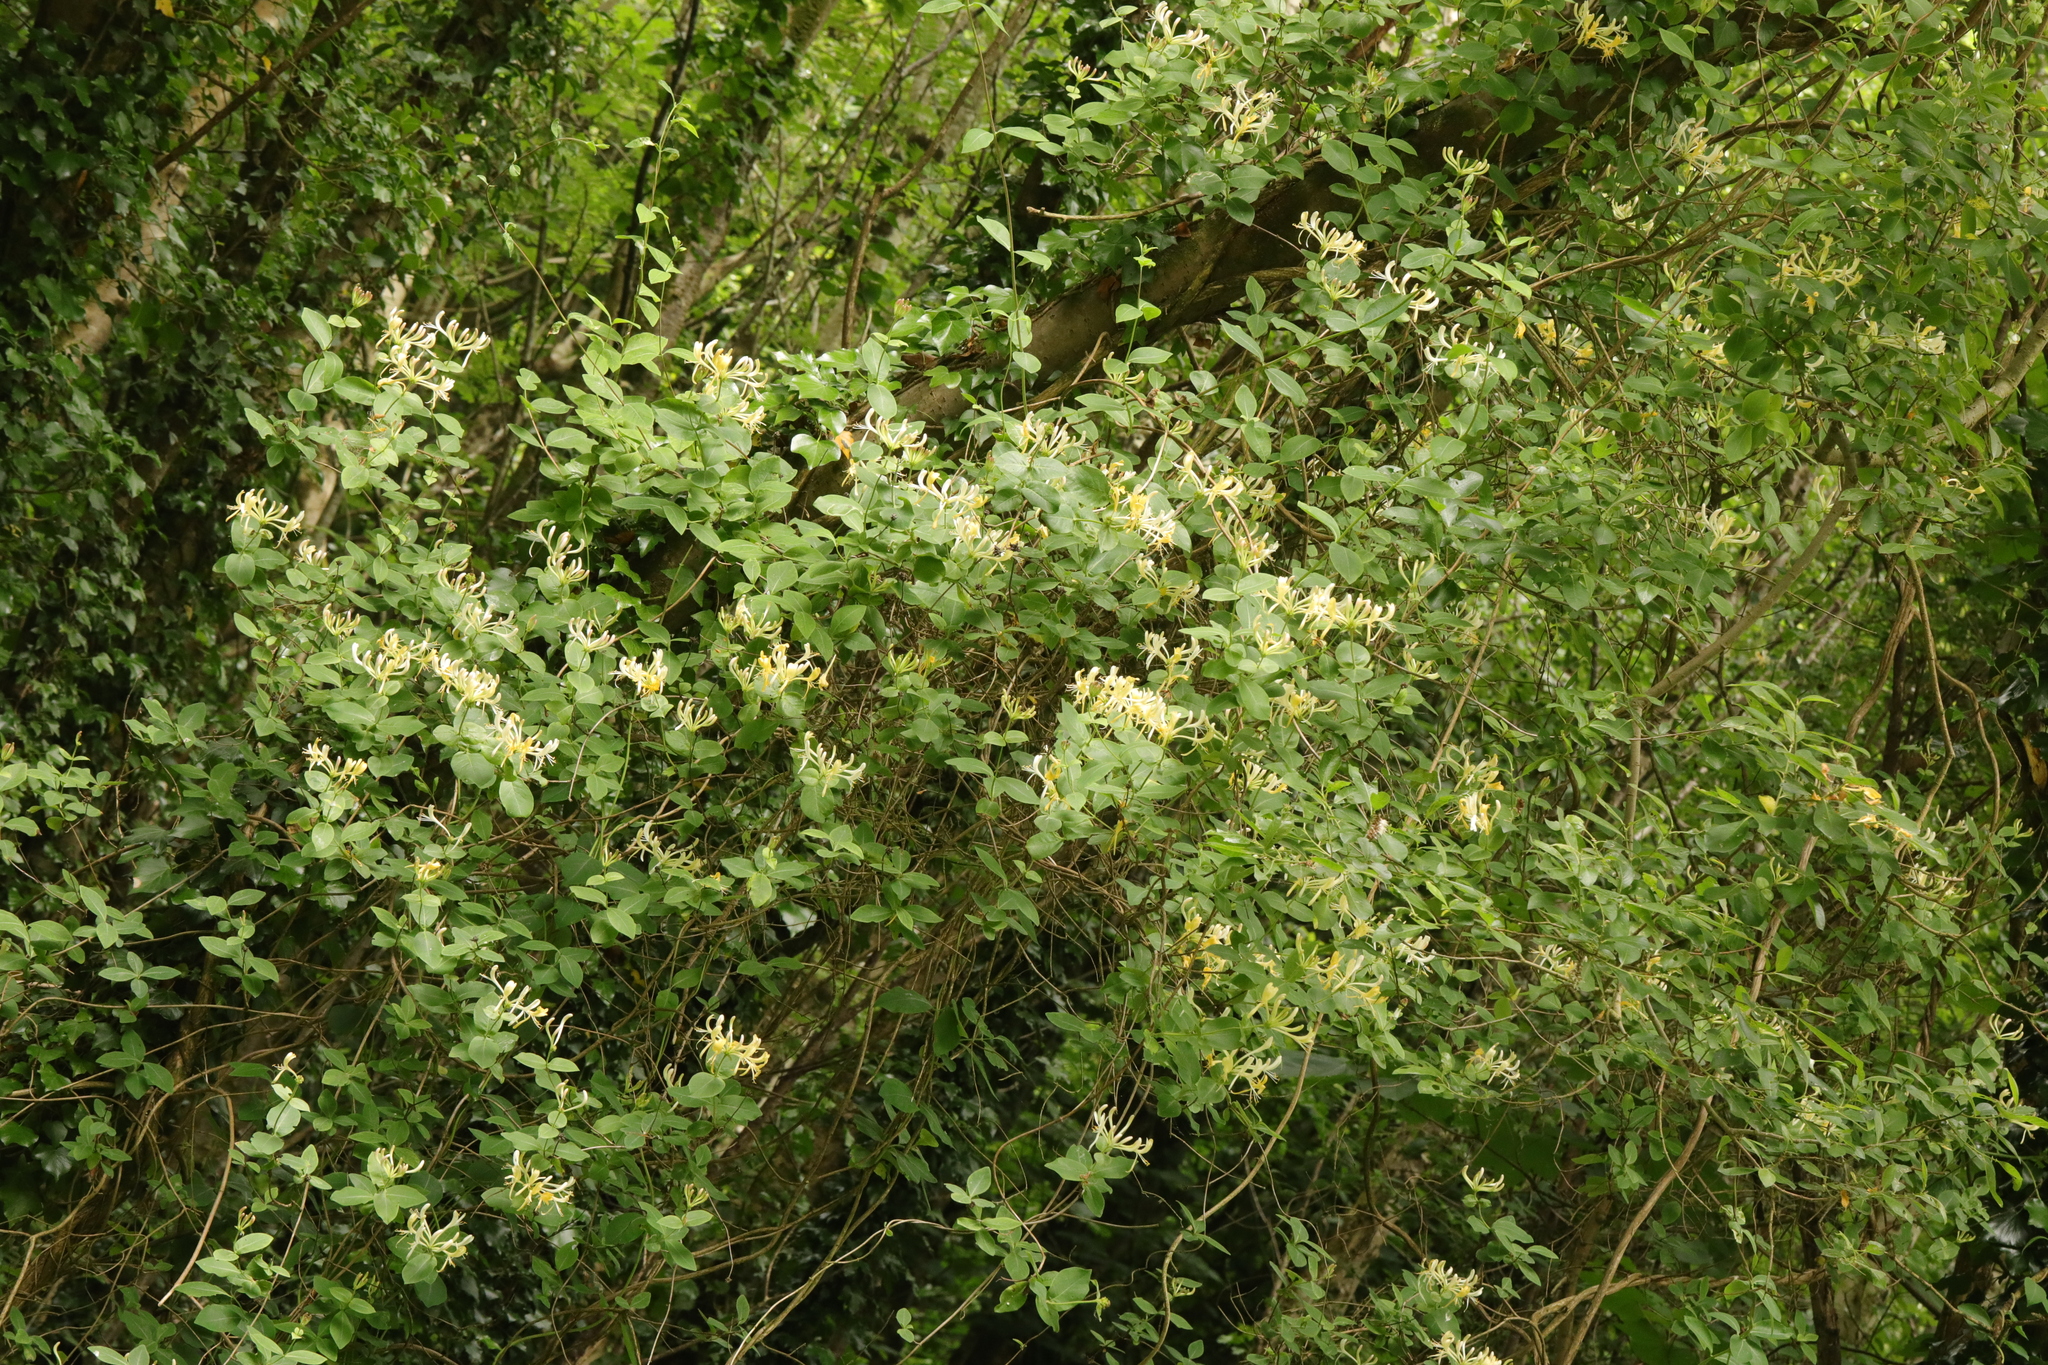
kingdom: Plantae
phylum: Tracheophyta
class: Magnoliopsida
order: Dipsacales
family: Caprifoliaceae
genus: Lonicera
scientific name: Lonicera periclymenum
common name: European honeysuckle
